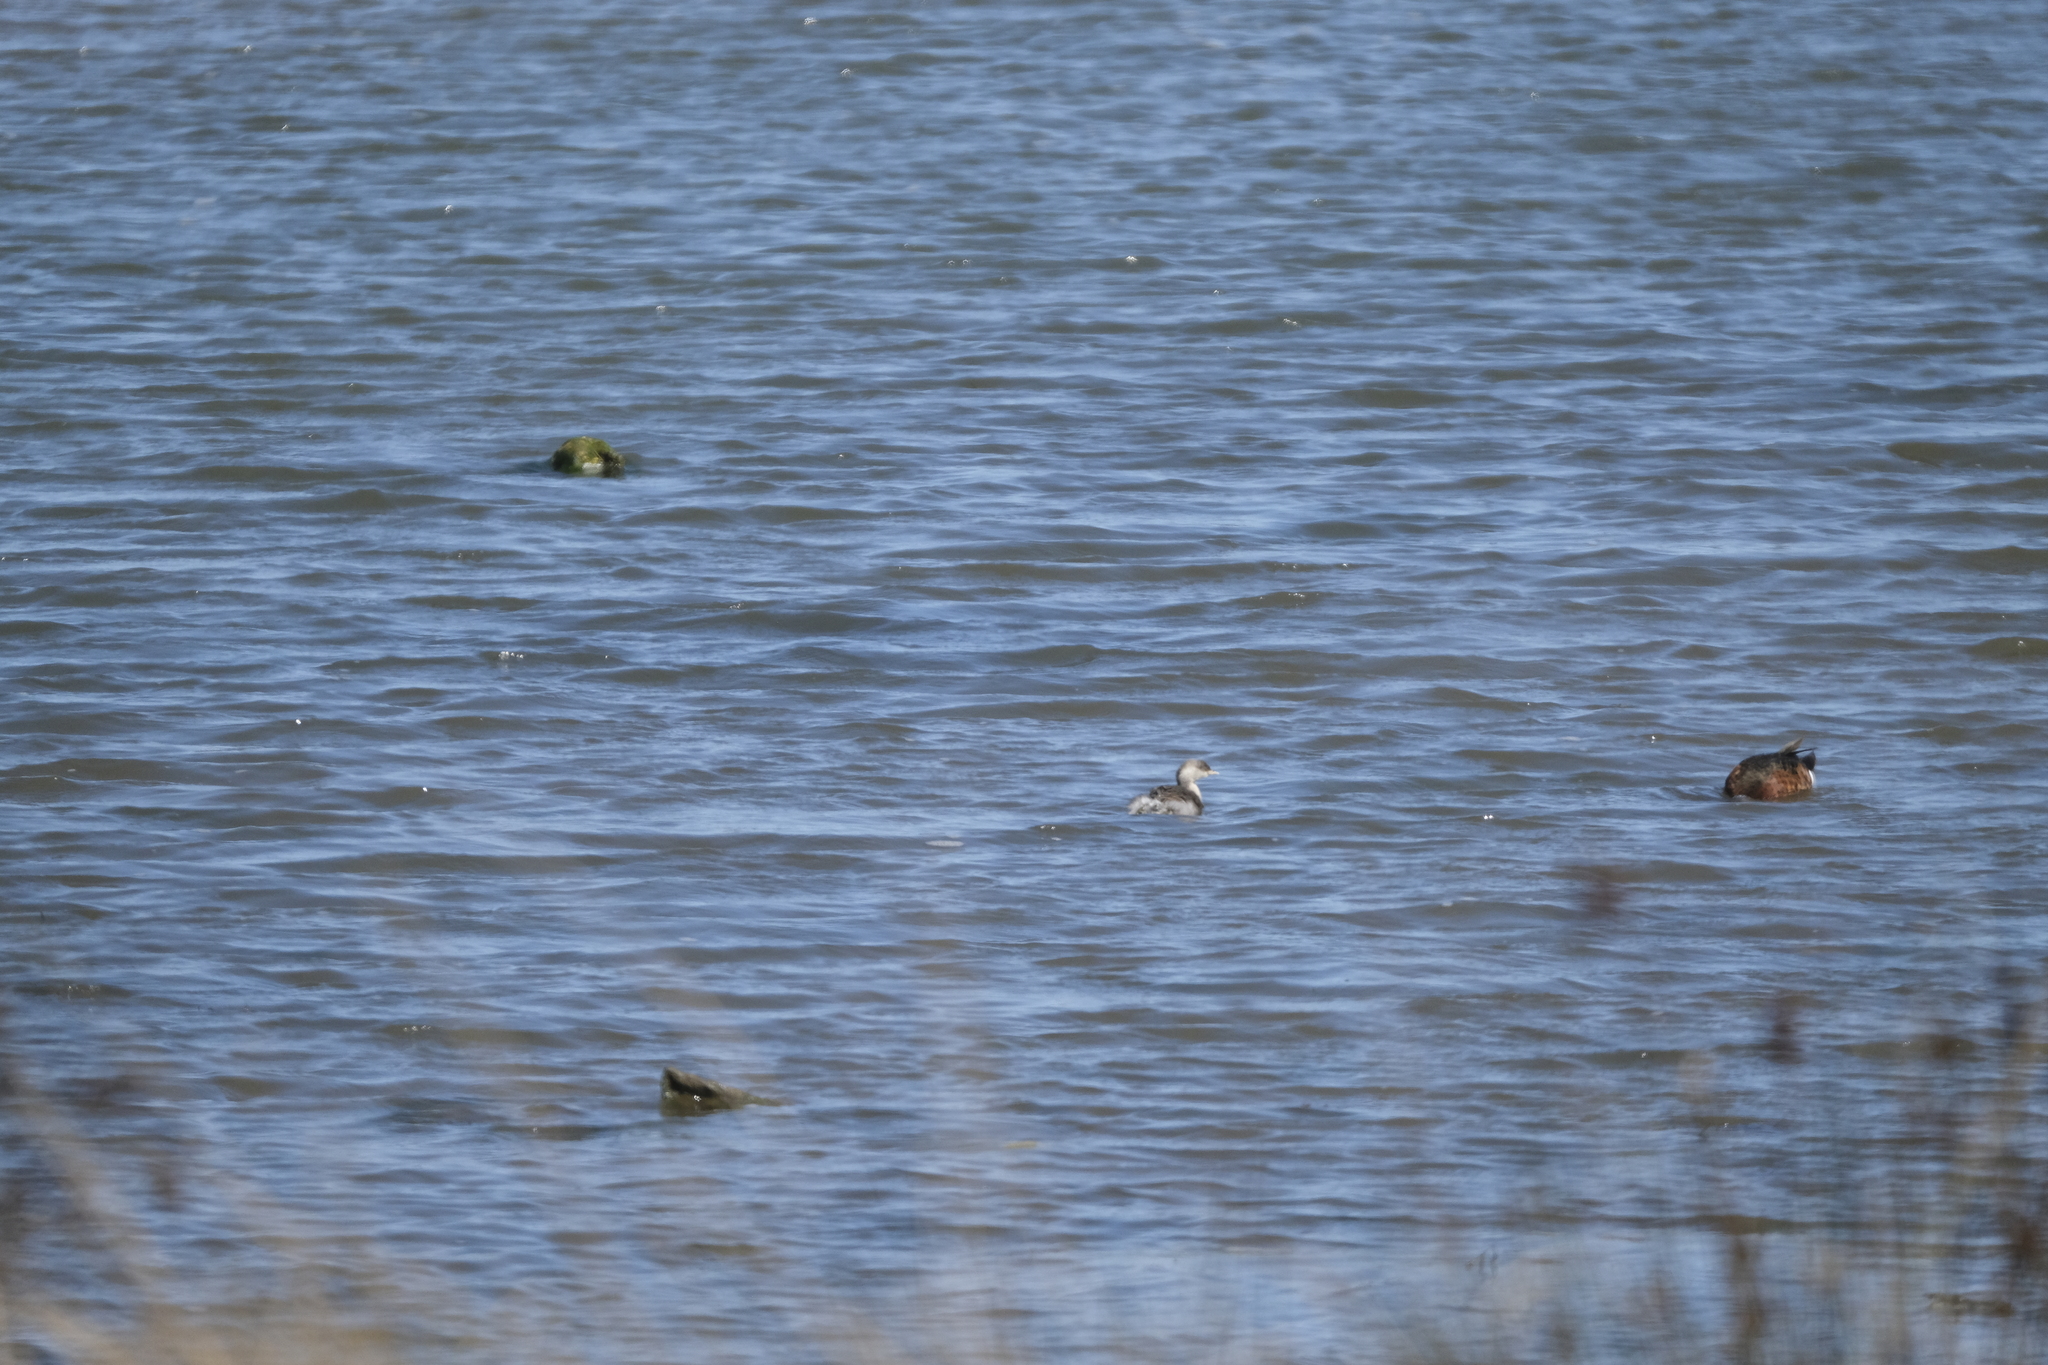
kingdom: Animalia
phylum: Chordata
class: Aves
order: Podicipediformes
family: Podicipedidae
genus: Poliocephalus
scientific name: Poliocephalus poliocephalus
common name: Hoary-headed grebe
